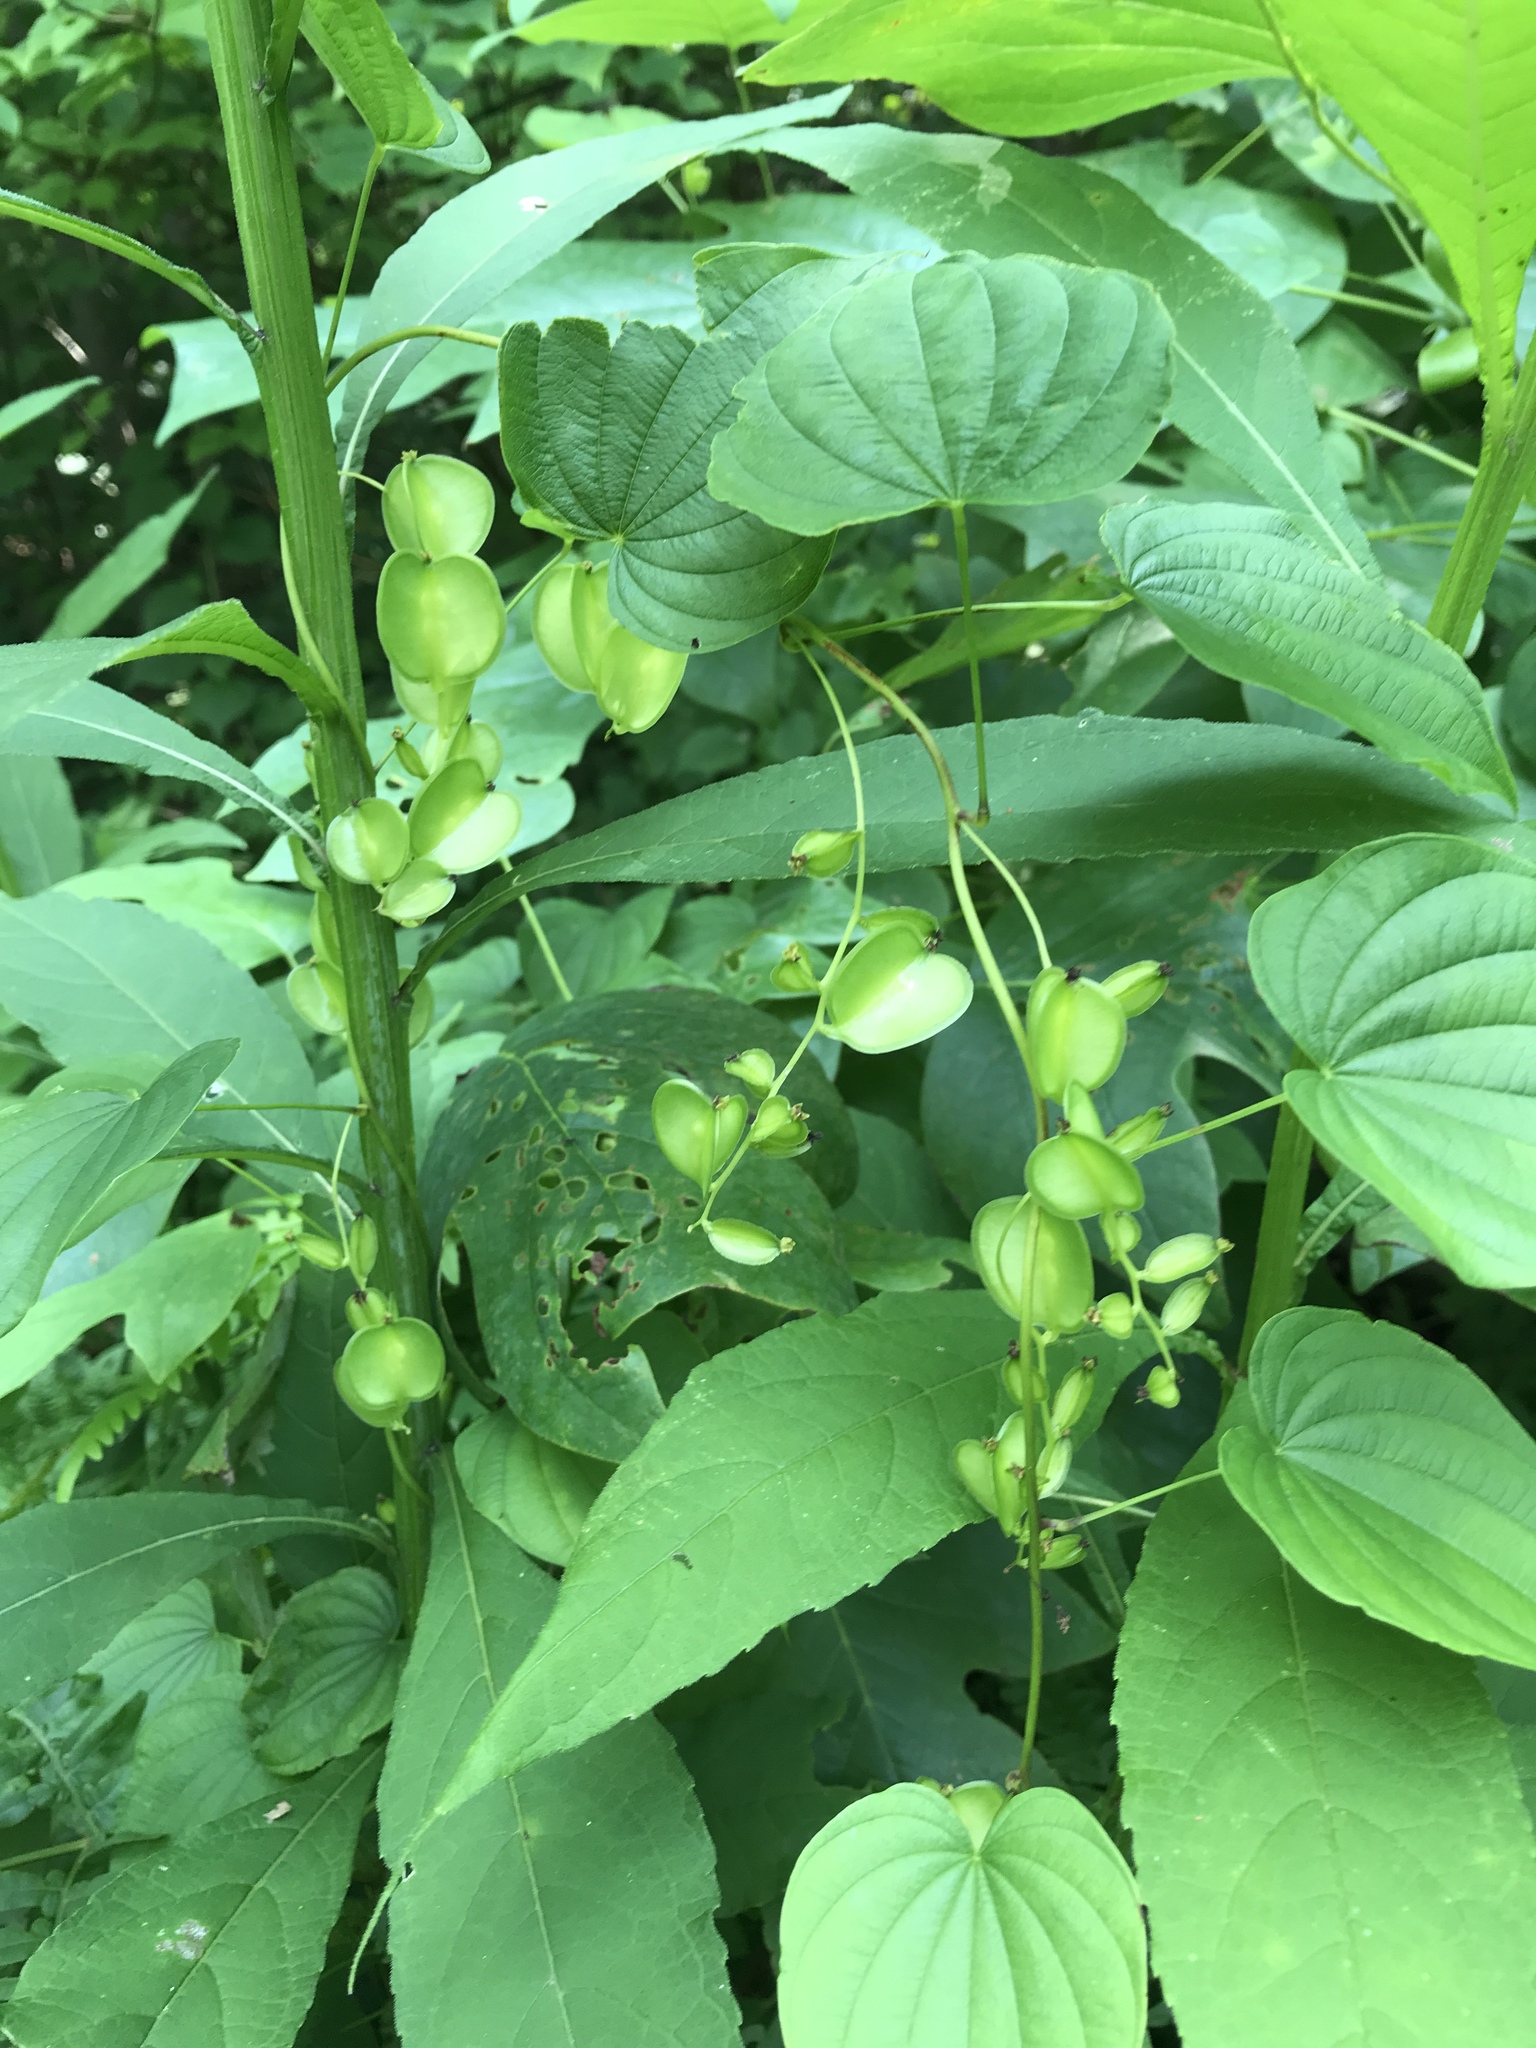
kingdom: Plantae
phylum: Tracheophyta
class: Liliopsida
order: Dioscoreales
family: Dioscoreaceae
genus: Dioscorea
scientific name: Dioscorea villosa
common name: Wild yam
